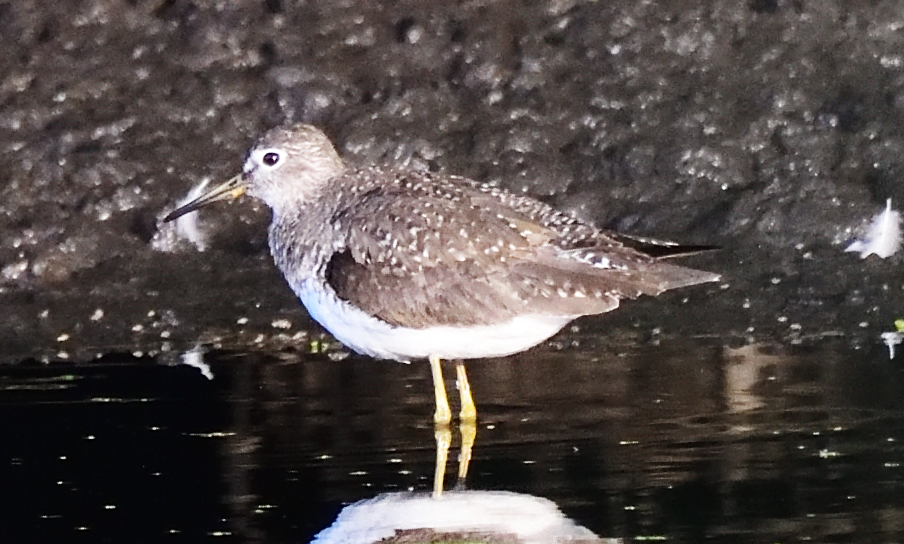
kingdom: Animalia
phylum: Chordata
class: Aves
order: Charadriiformes
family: Scolopacidae
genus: Tringa
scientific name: Tringa solitaria
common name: Solitary sandpiper
